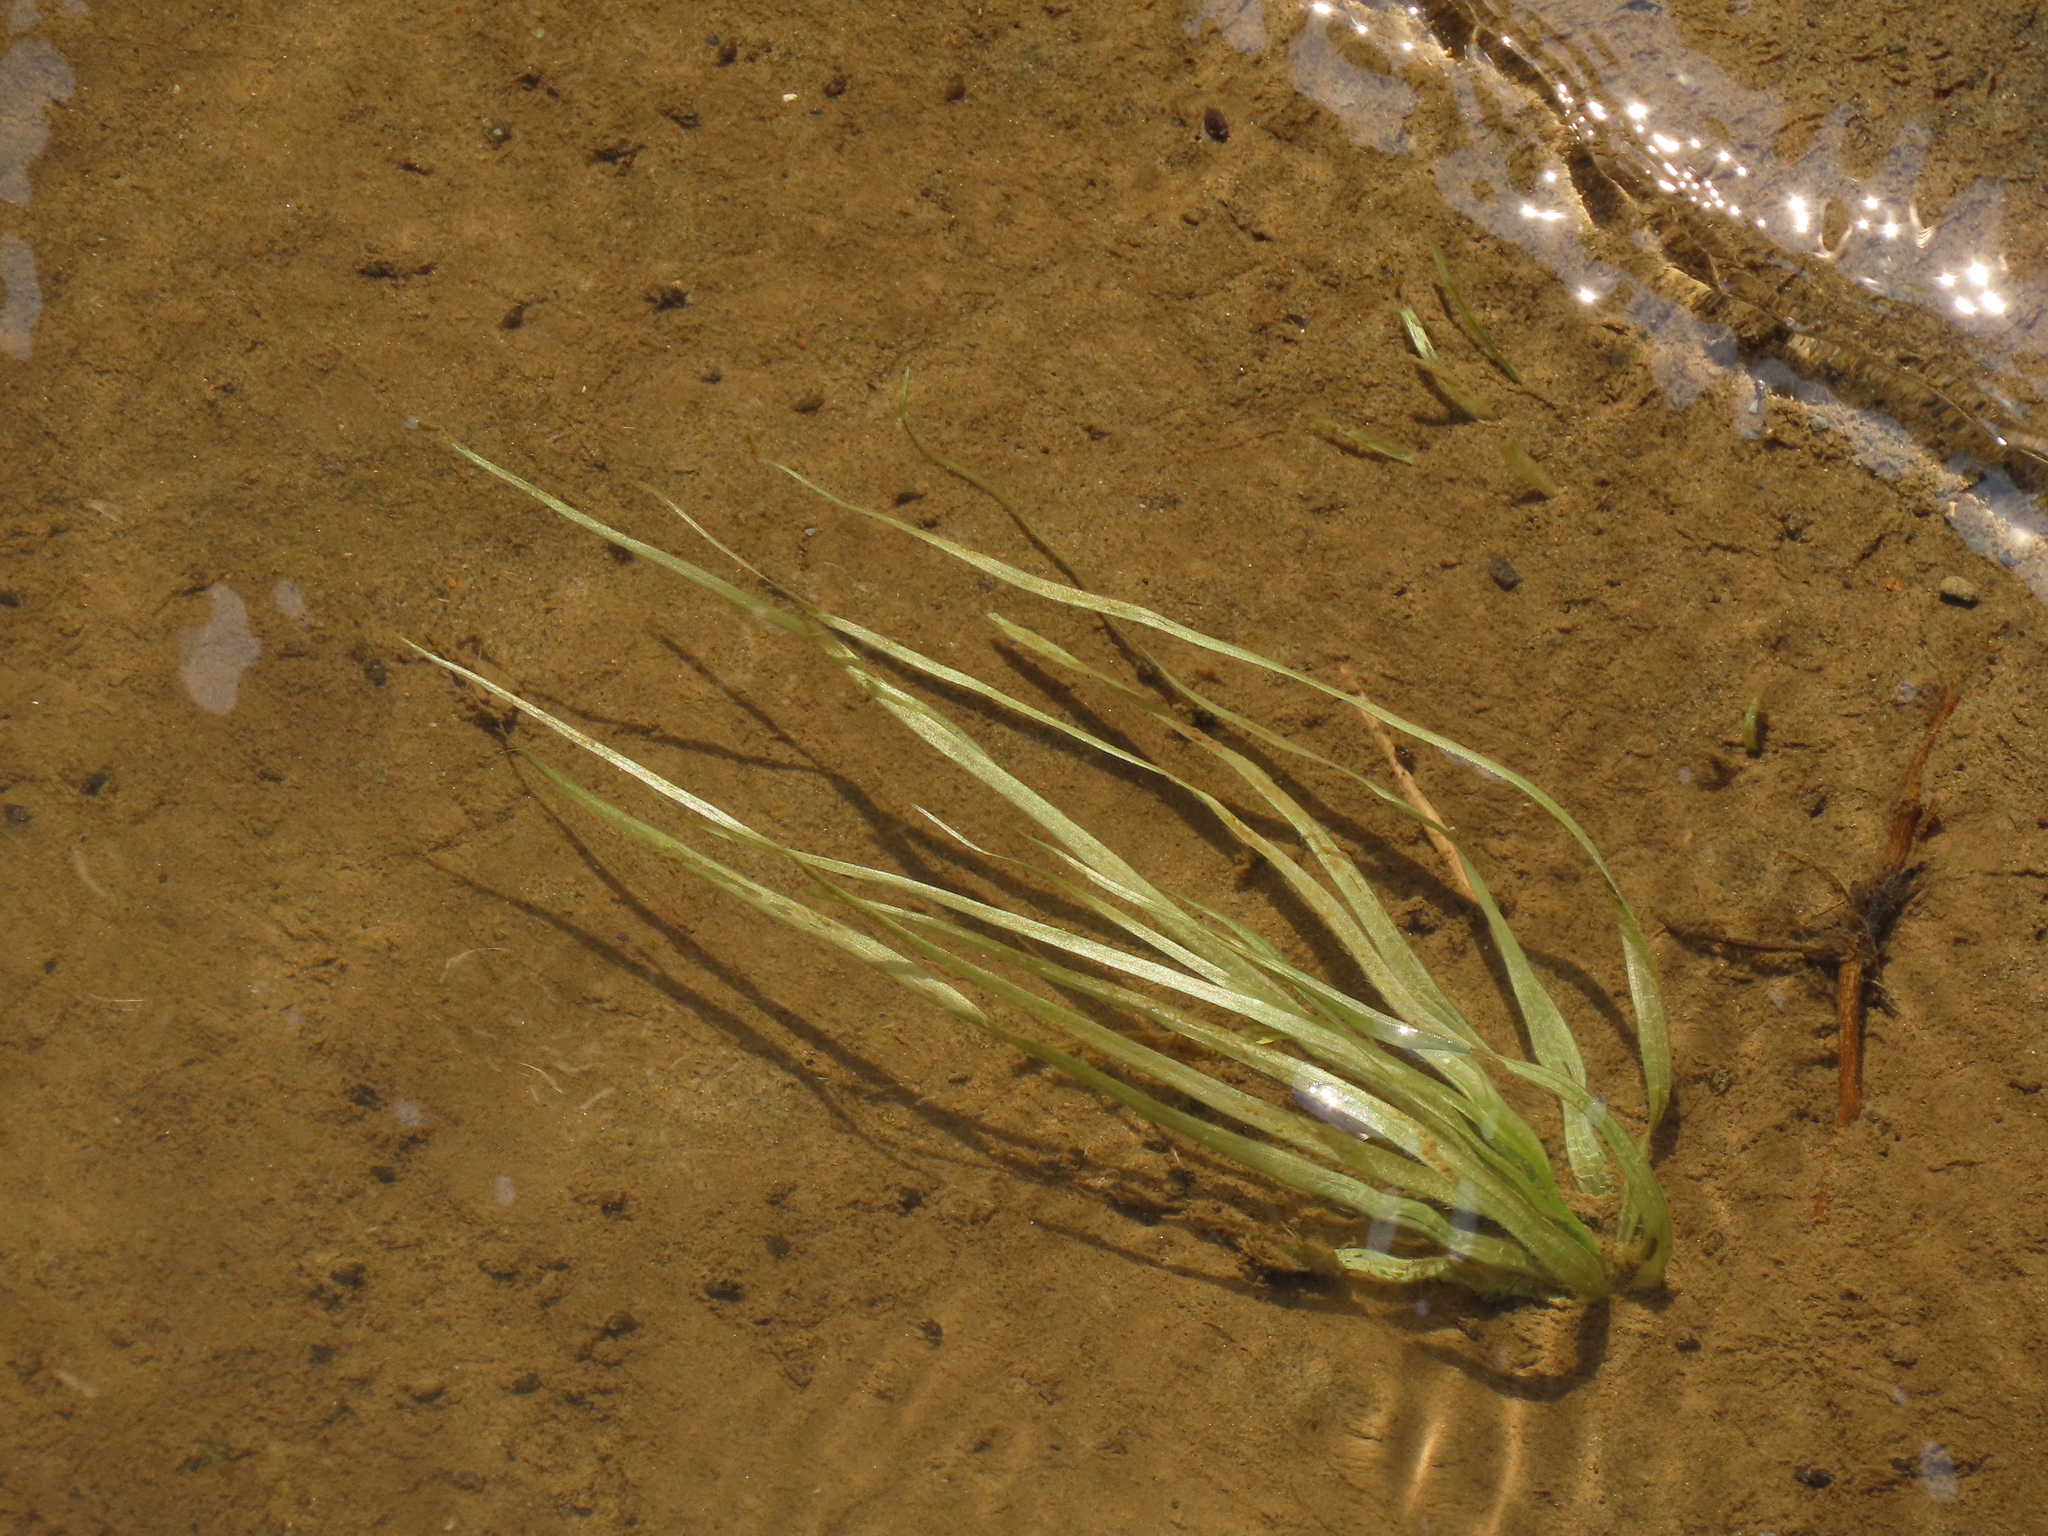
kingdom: Plantae
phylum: Tracheophyta
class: Liliopsida
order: Alismatales
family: Hydrocharitaceae
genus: Blyxa
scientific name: Blyxa echinosperma
